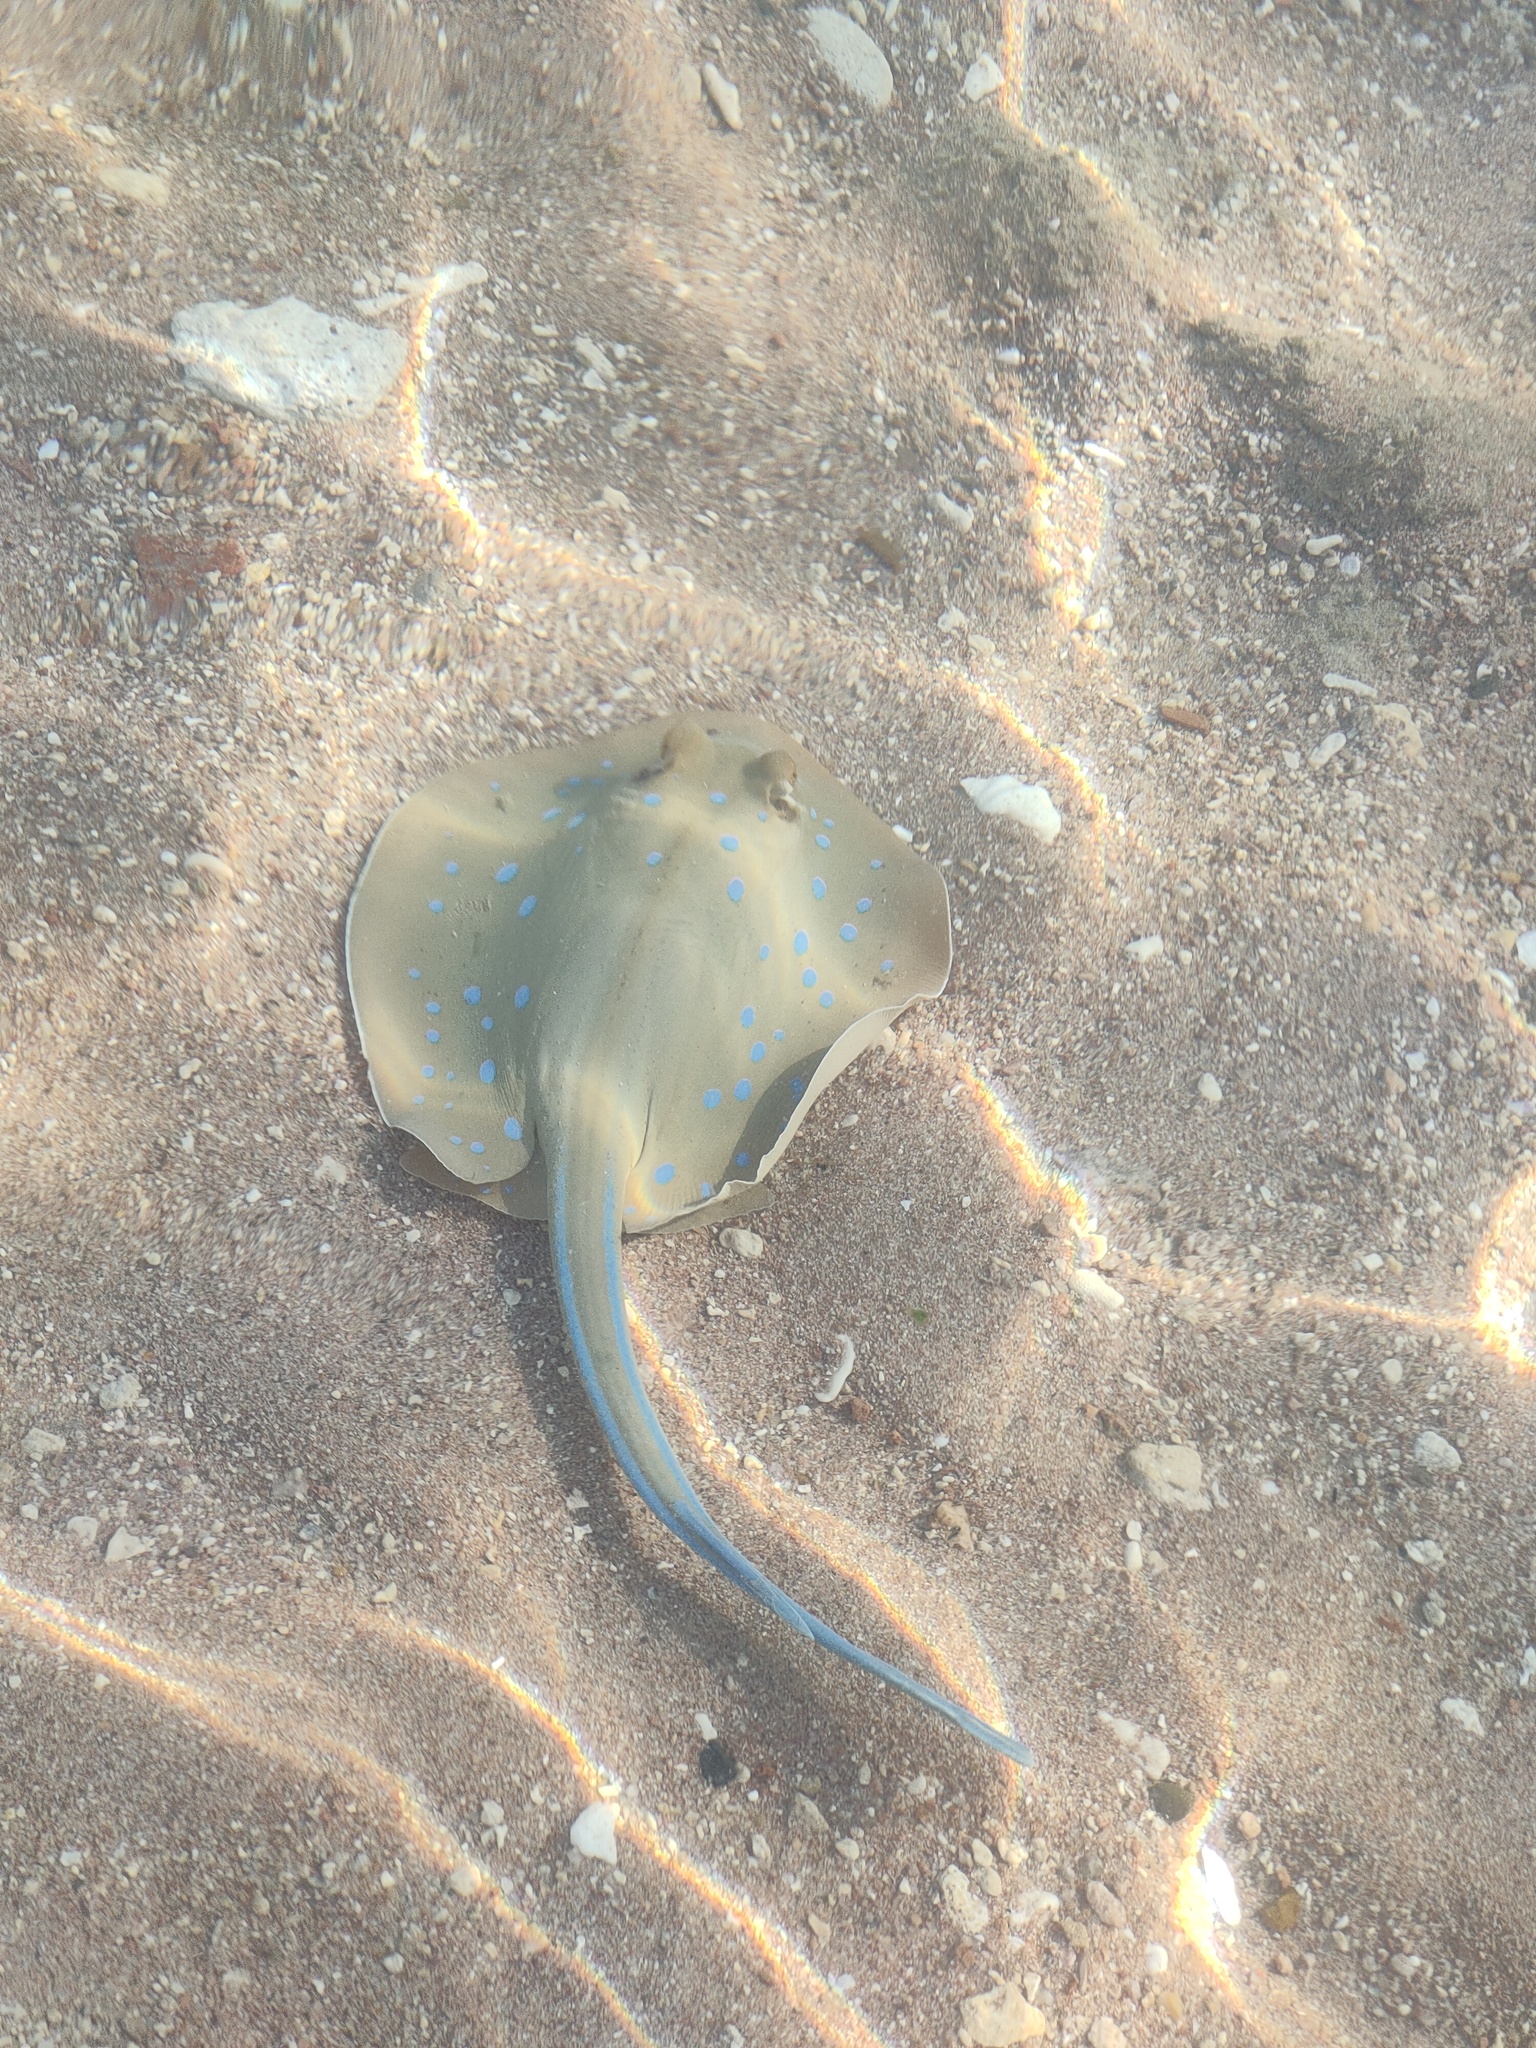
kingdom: Animalia
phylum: Chordata
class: Elasmobranchii
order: Myliobatiformes
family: Dasyatidae
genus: Taeniura
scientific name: Taeniura lymma
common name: Bluespotted ribbontail ray
